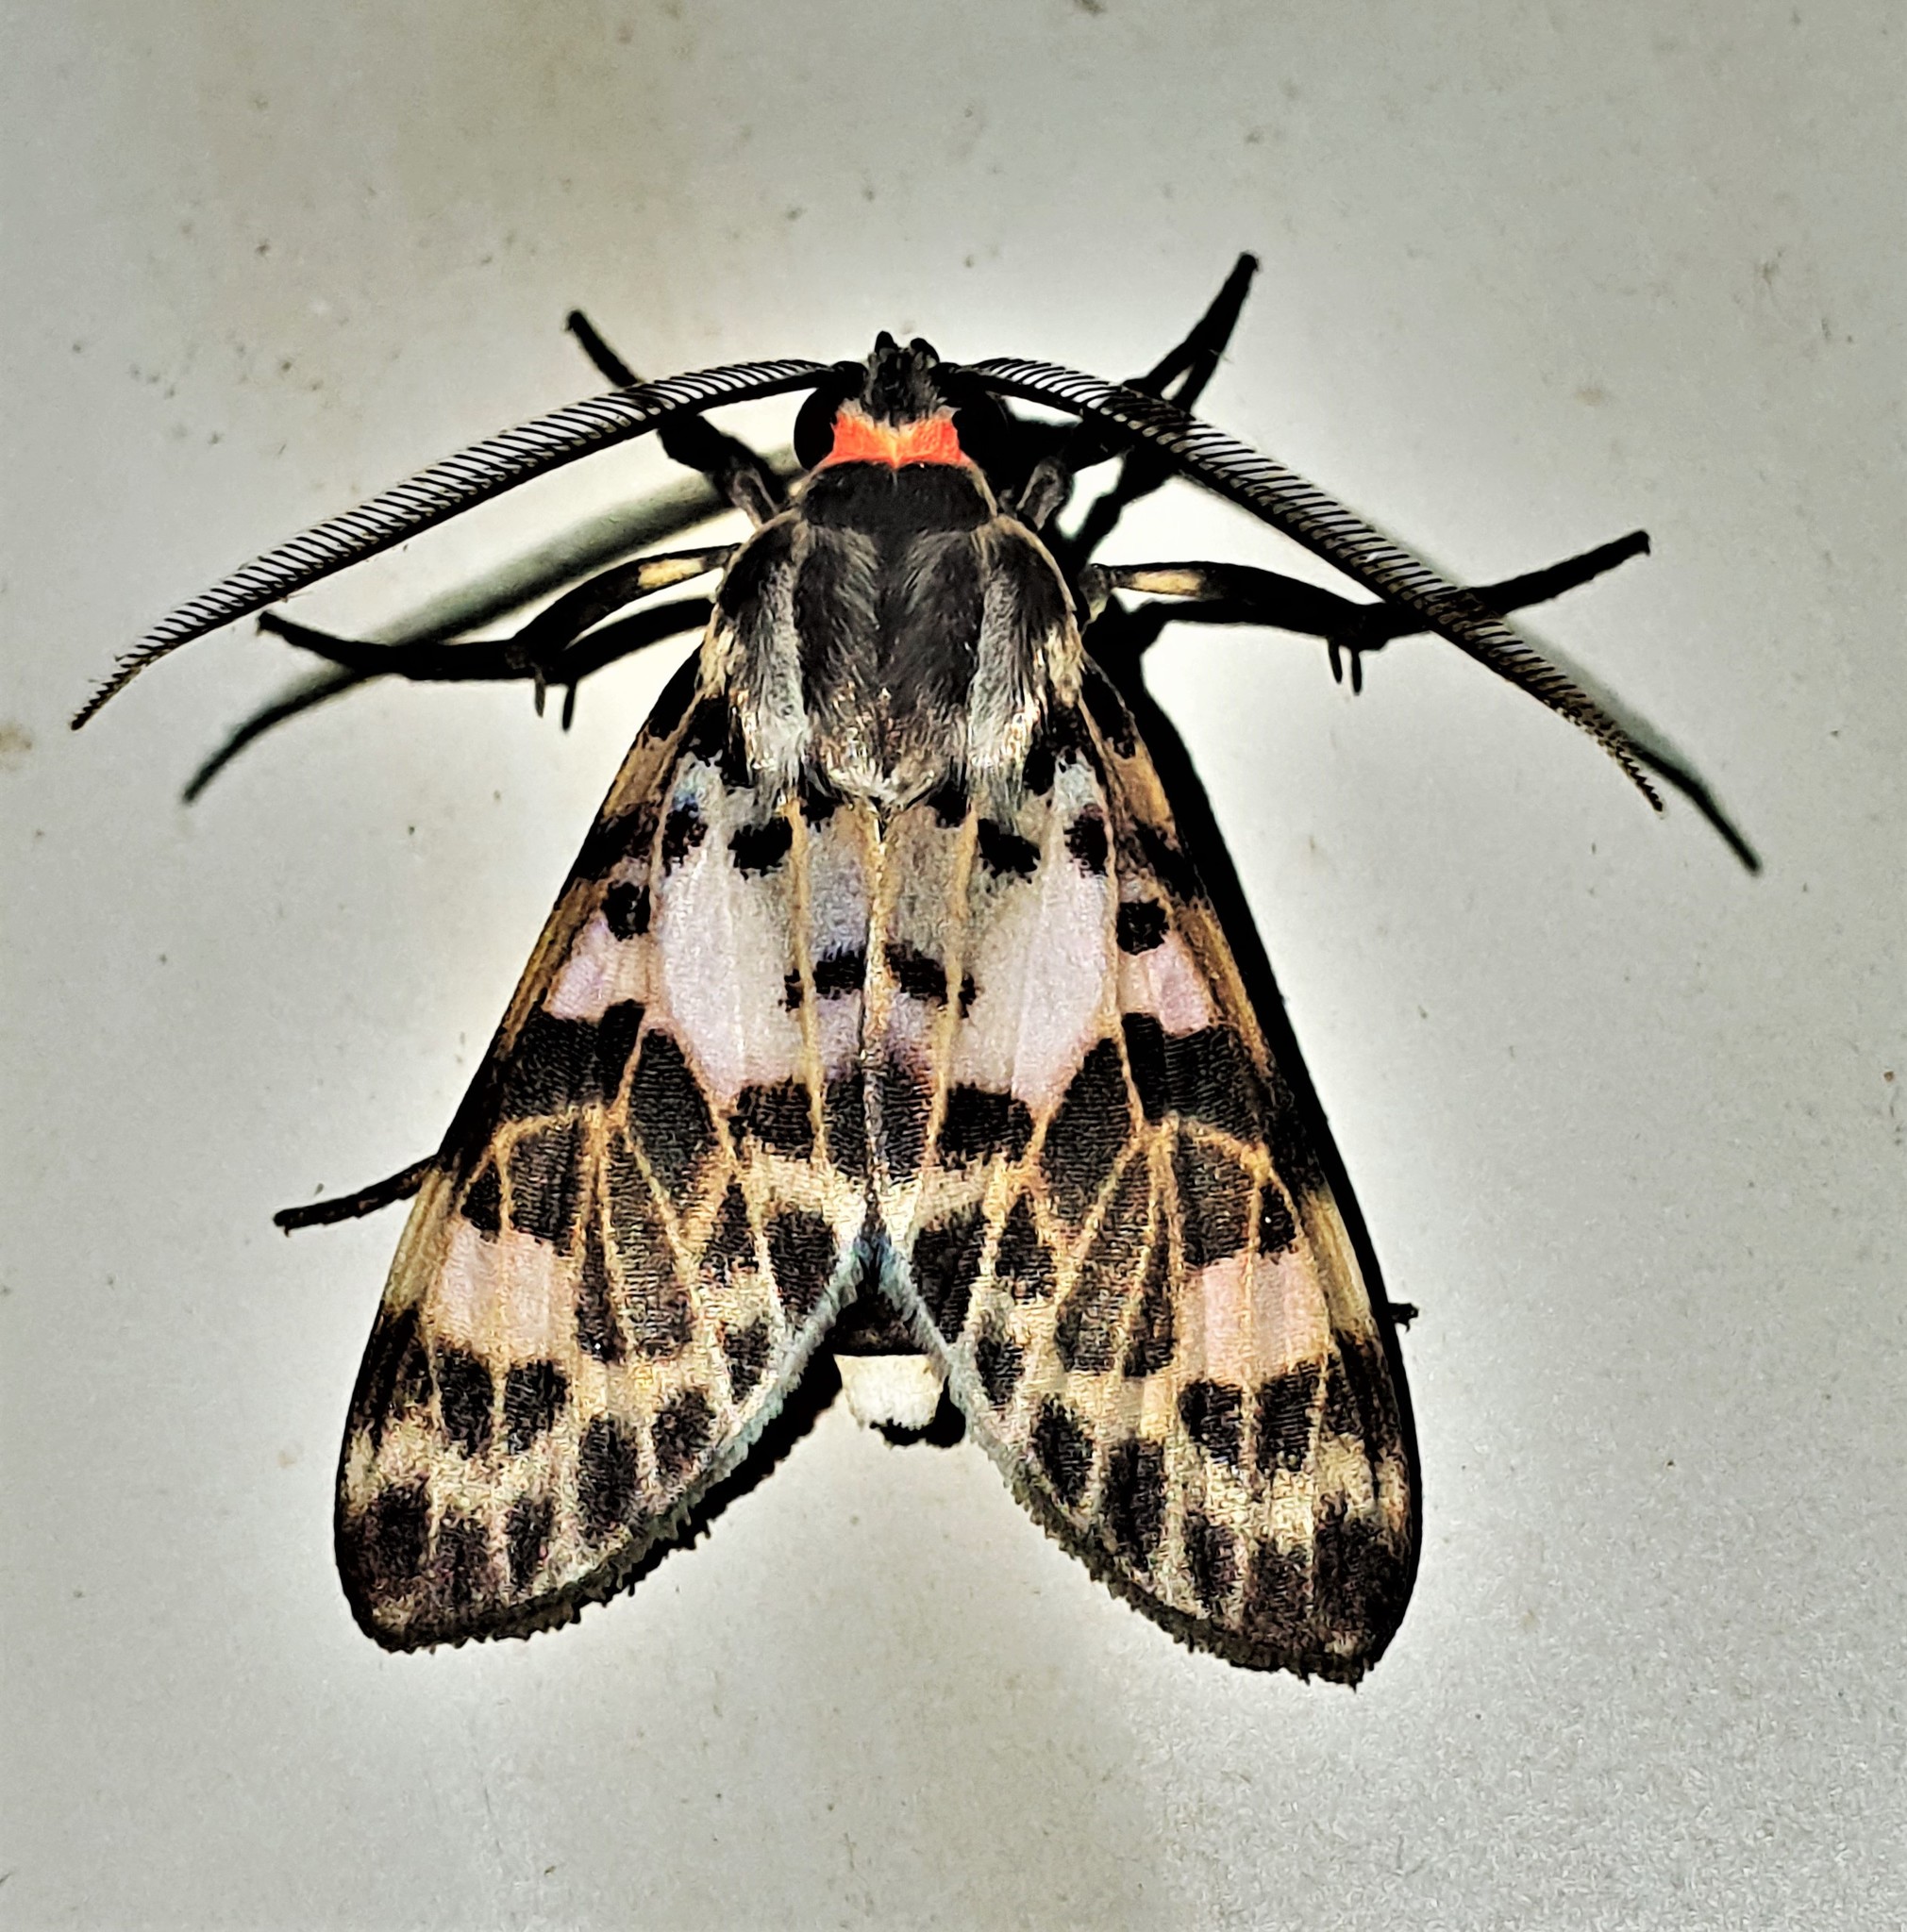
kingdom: Animalia
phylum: Arthropoda
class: Insecta
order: Lepidoptera
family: Erebidae
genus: Heliura
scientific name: Heliura perexcavatum
